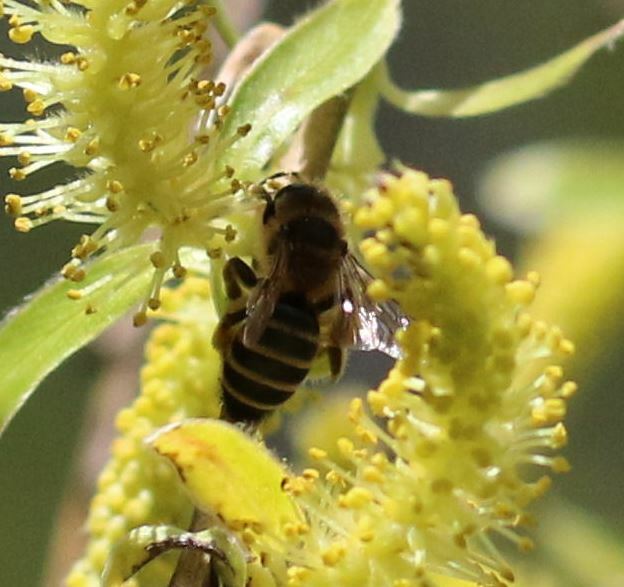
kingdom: Animalia
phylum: Arthropoda
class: Insecta
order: Hymenoptera
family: Andrenidae
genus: Andrena
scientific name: Andrena flavipes
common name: Yellow-legged mining bee
